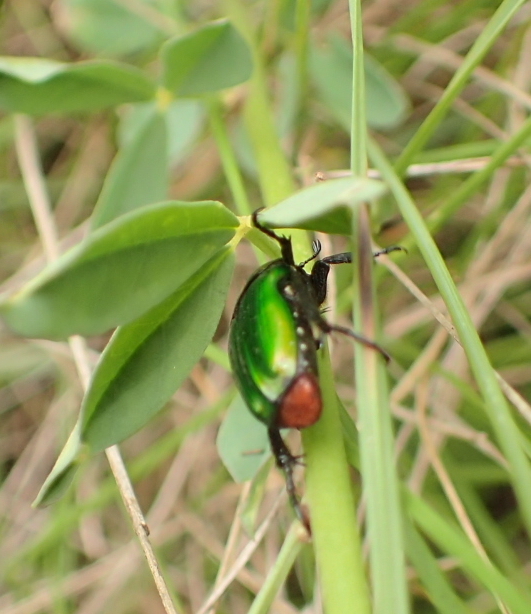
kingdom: Plantae
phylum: Tracheophyta
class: Magnoliopsida
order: Fabales
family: Fabaceae
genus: Crotalaria
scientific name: Crotalaria globifera
